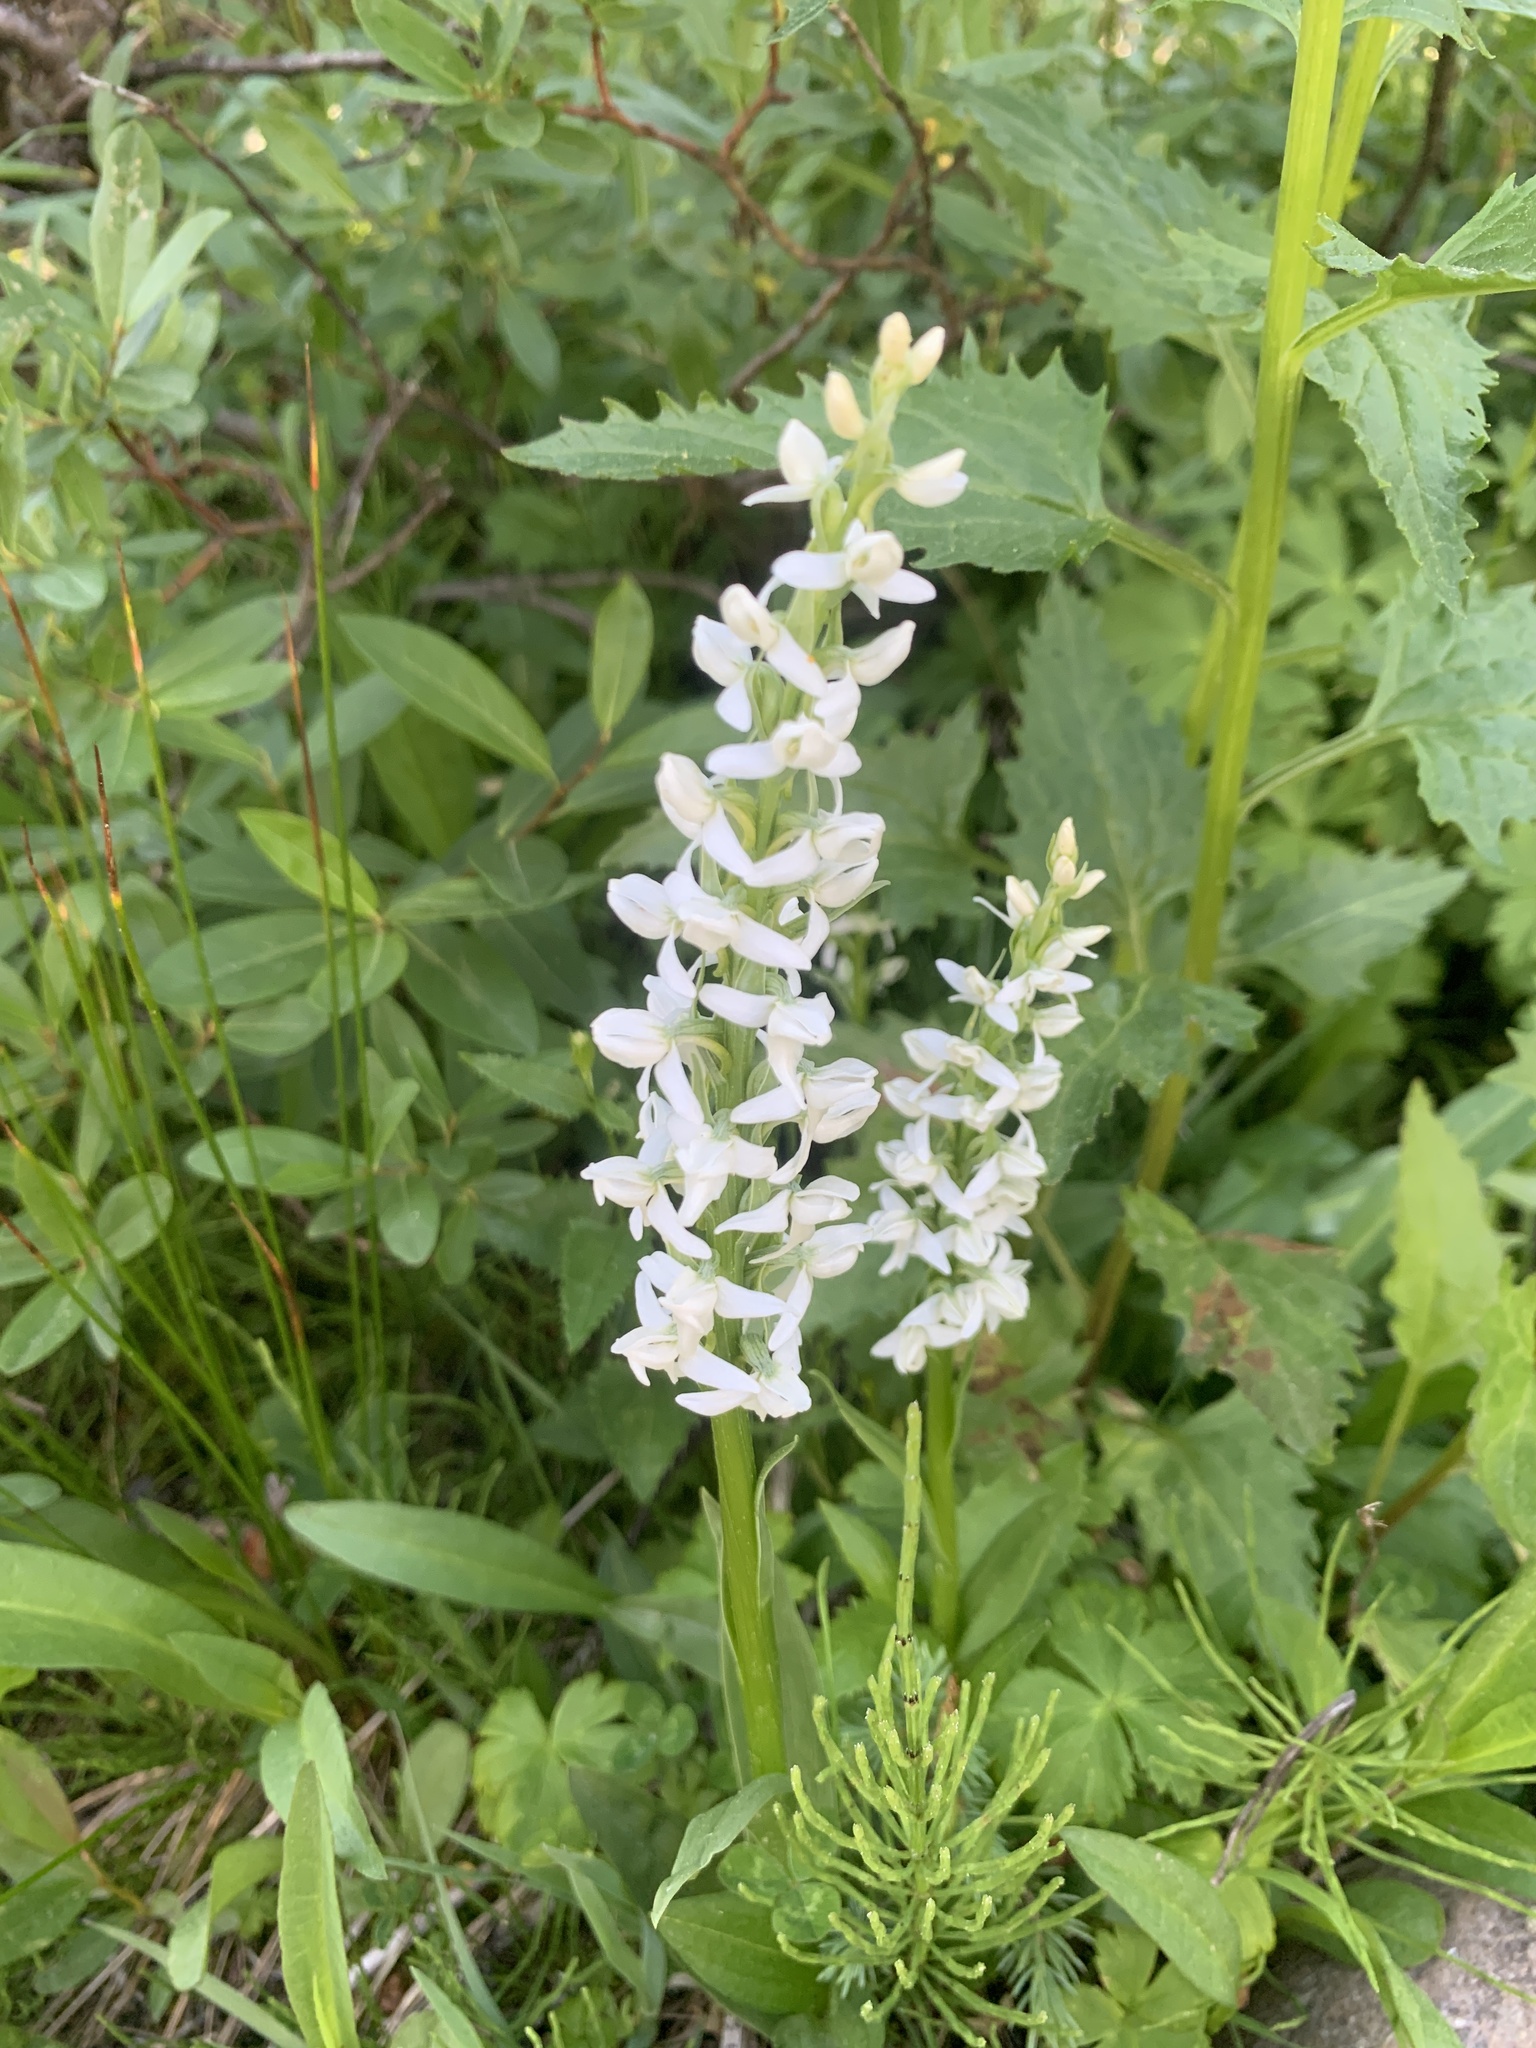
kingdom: Plantae
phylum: Tracheophyta
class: Liliopsida
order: Asparagales
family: Orchidaceae
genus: Platanthera
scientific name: Platanthera dilatata
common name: Bog candles
